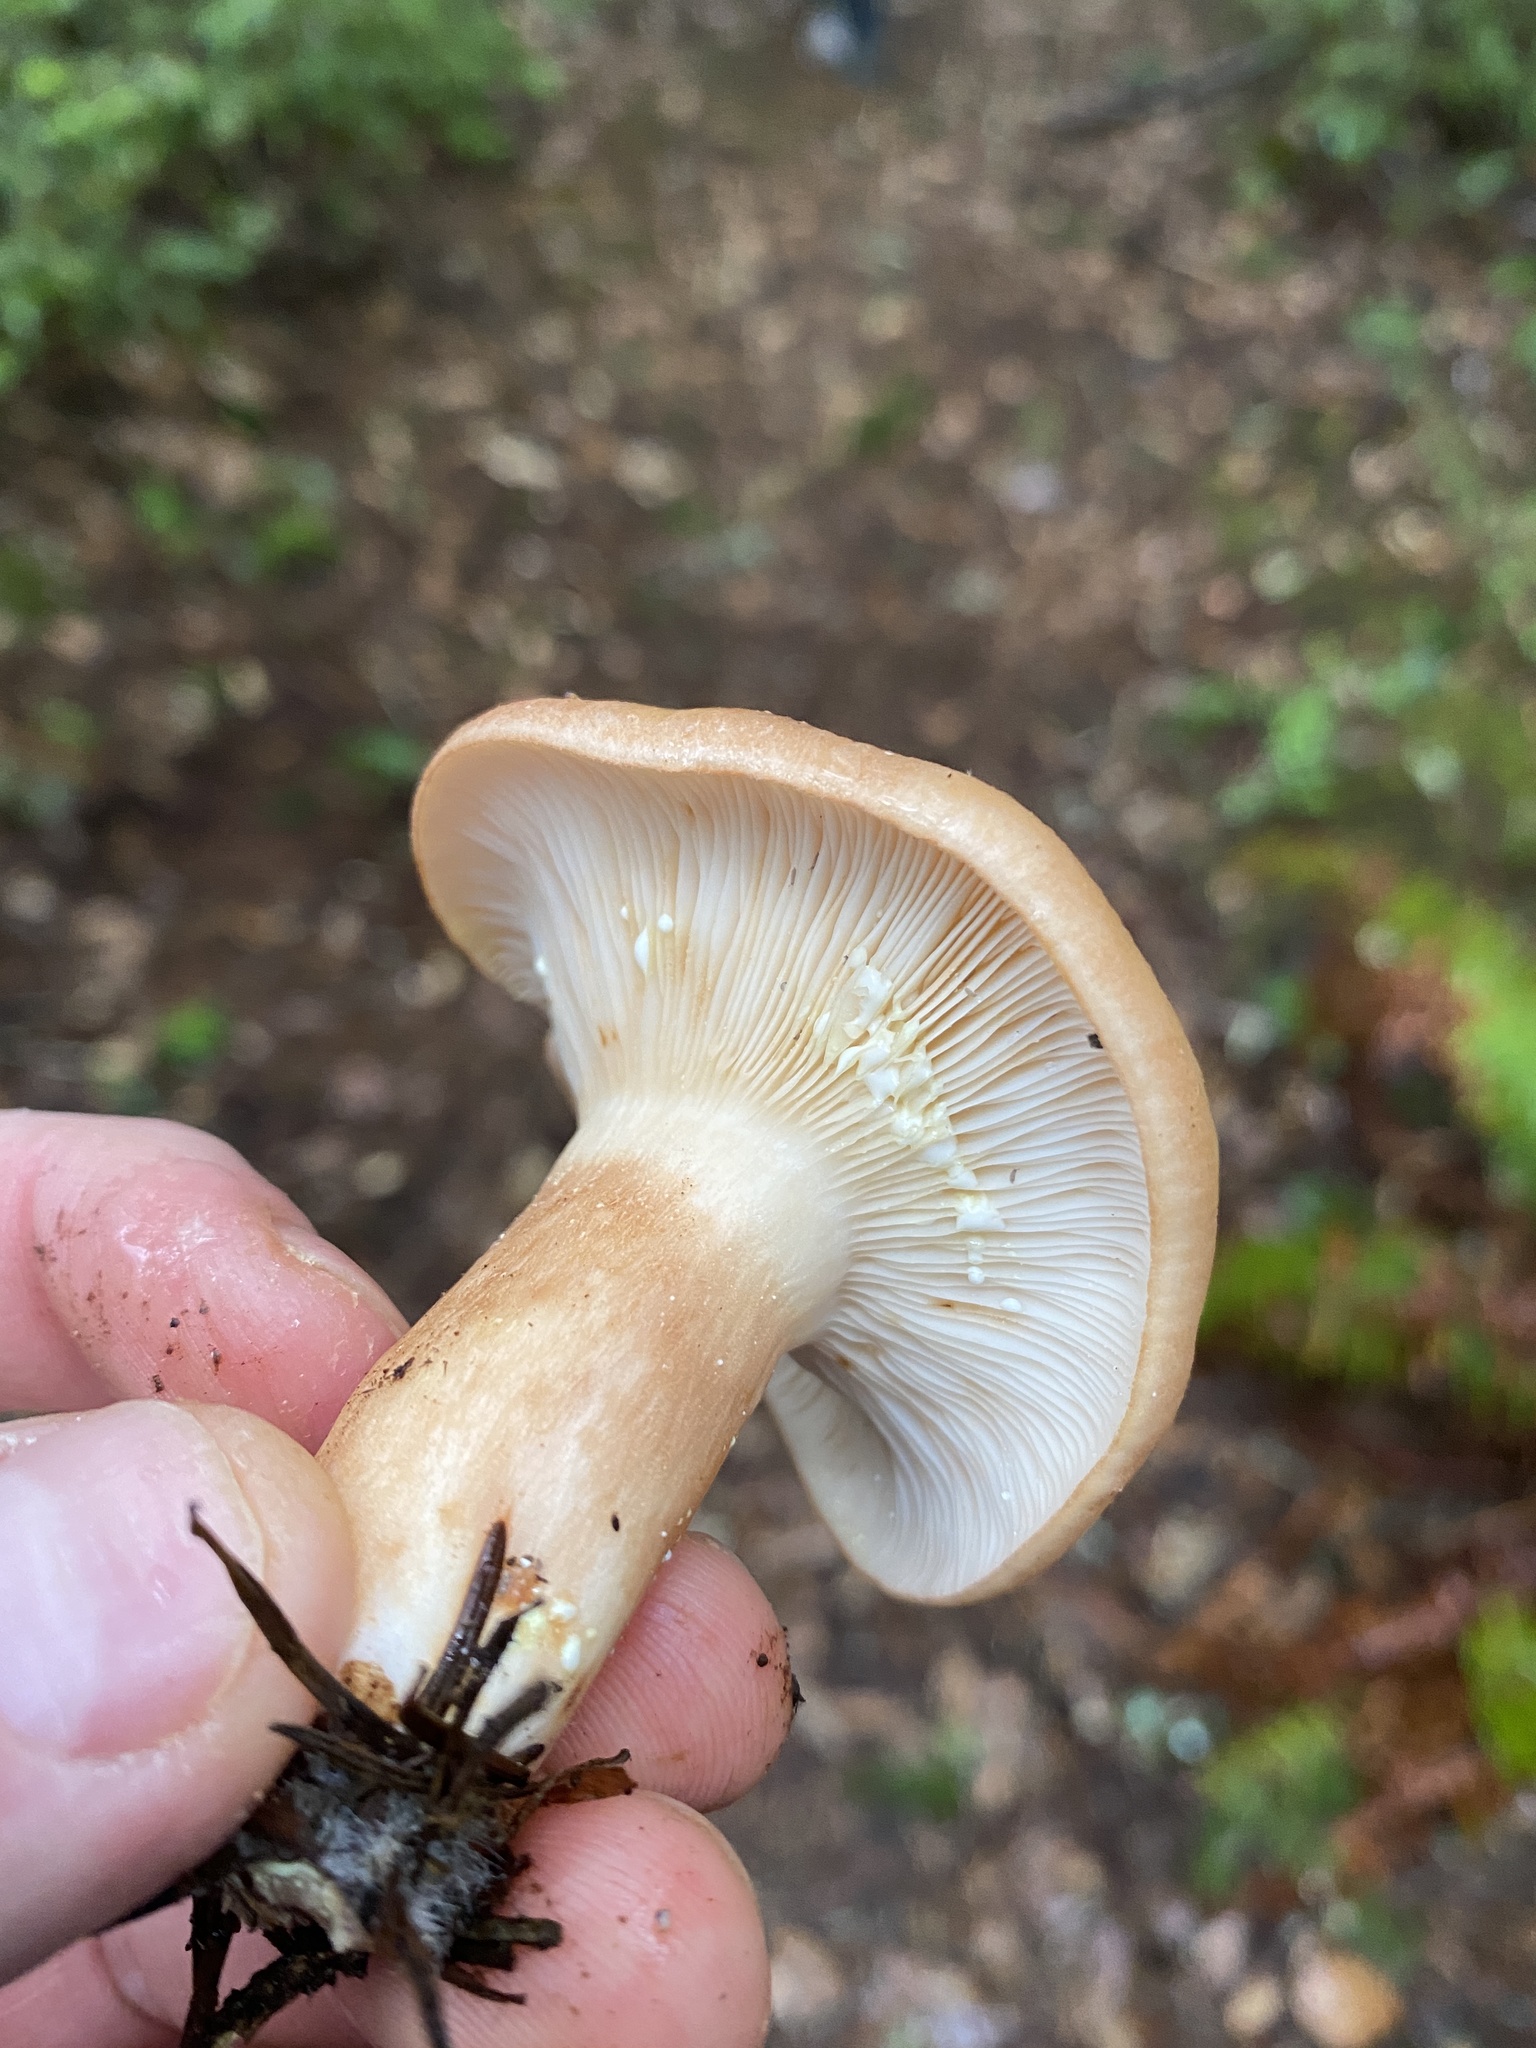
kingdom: Fungi
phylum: Basidiomycota
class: Agaricomycetes
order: Russulales
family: Russulaceae
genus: Lactarius
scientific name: Lactarius xanthogalactus
